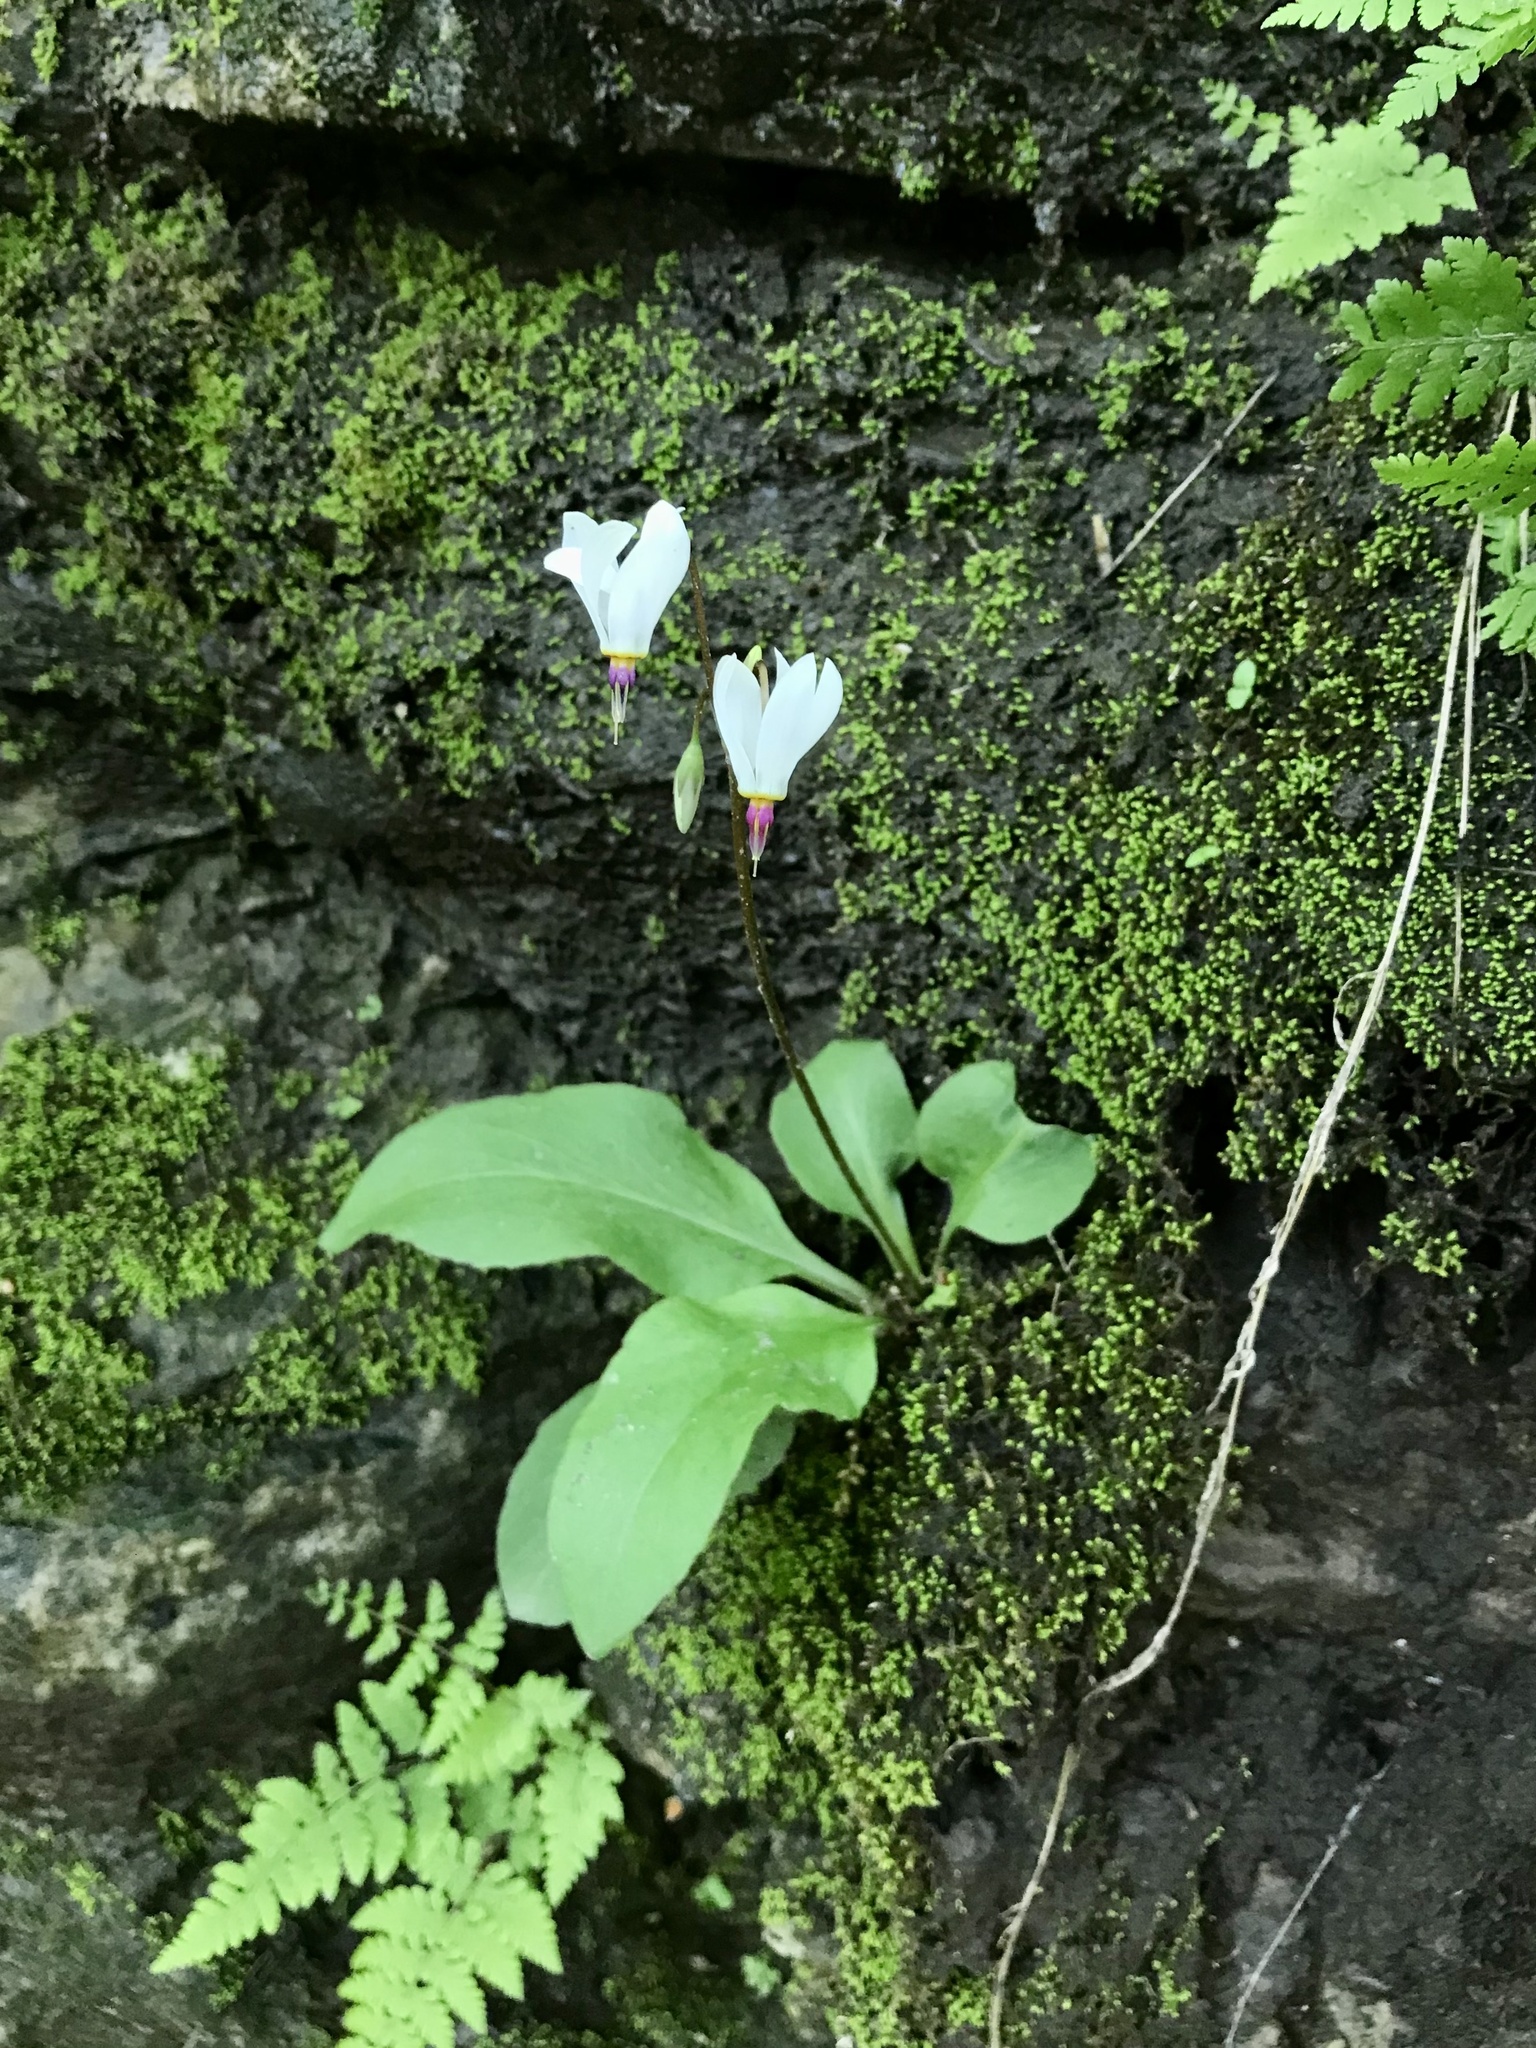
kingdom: Plantae
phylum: Tracheophyta
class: Magnoliopsida
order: Ericales
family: Primulaceae
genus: Dodecatheon
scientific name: Dodecatheon amethystinum
